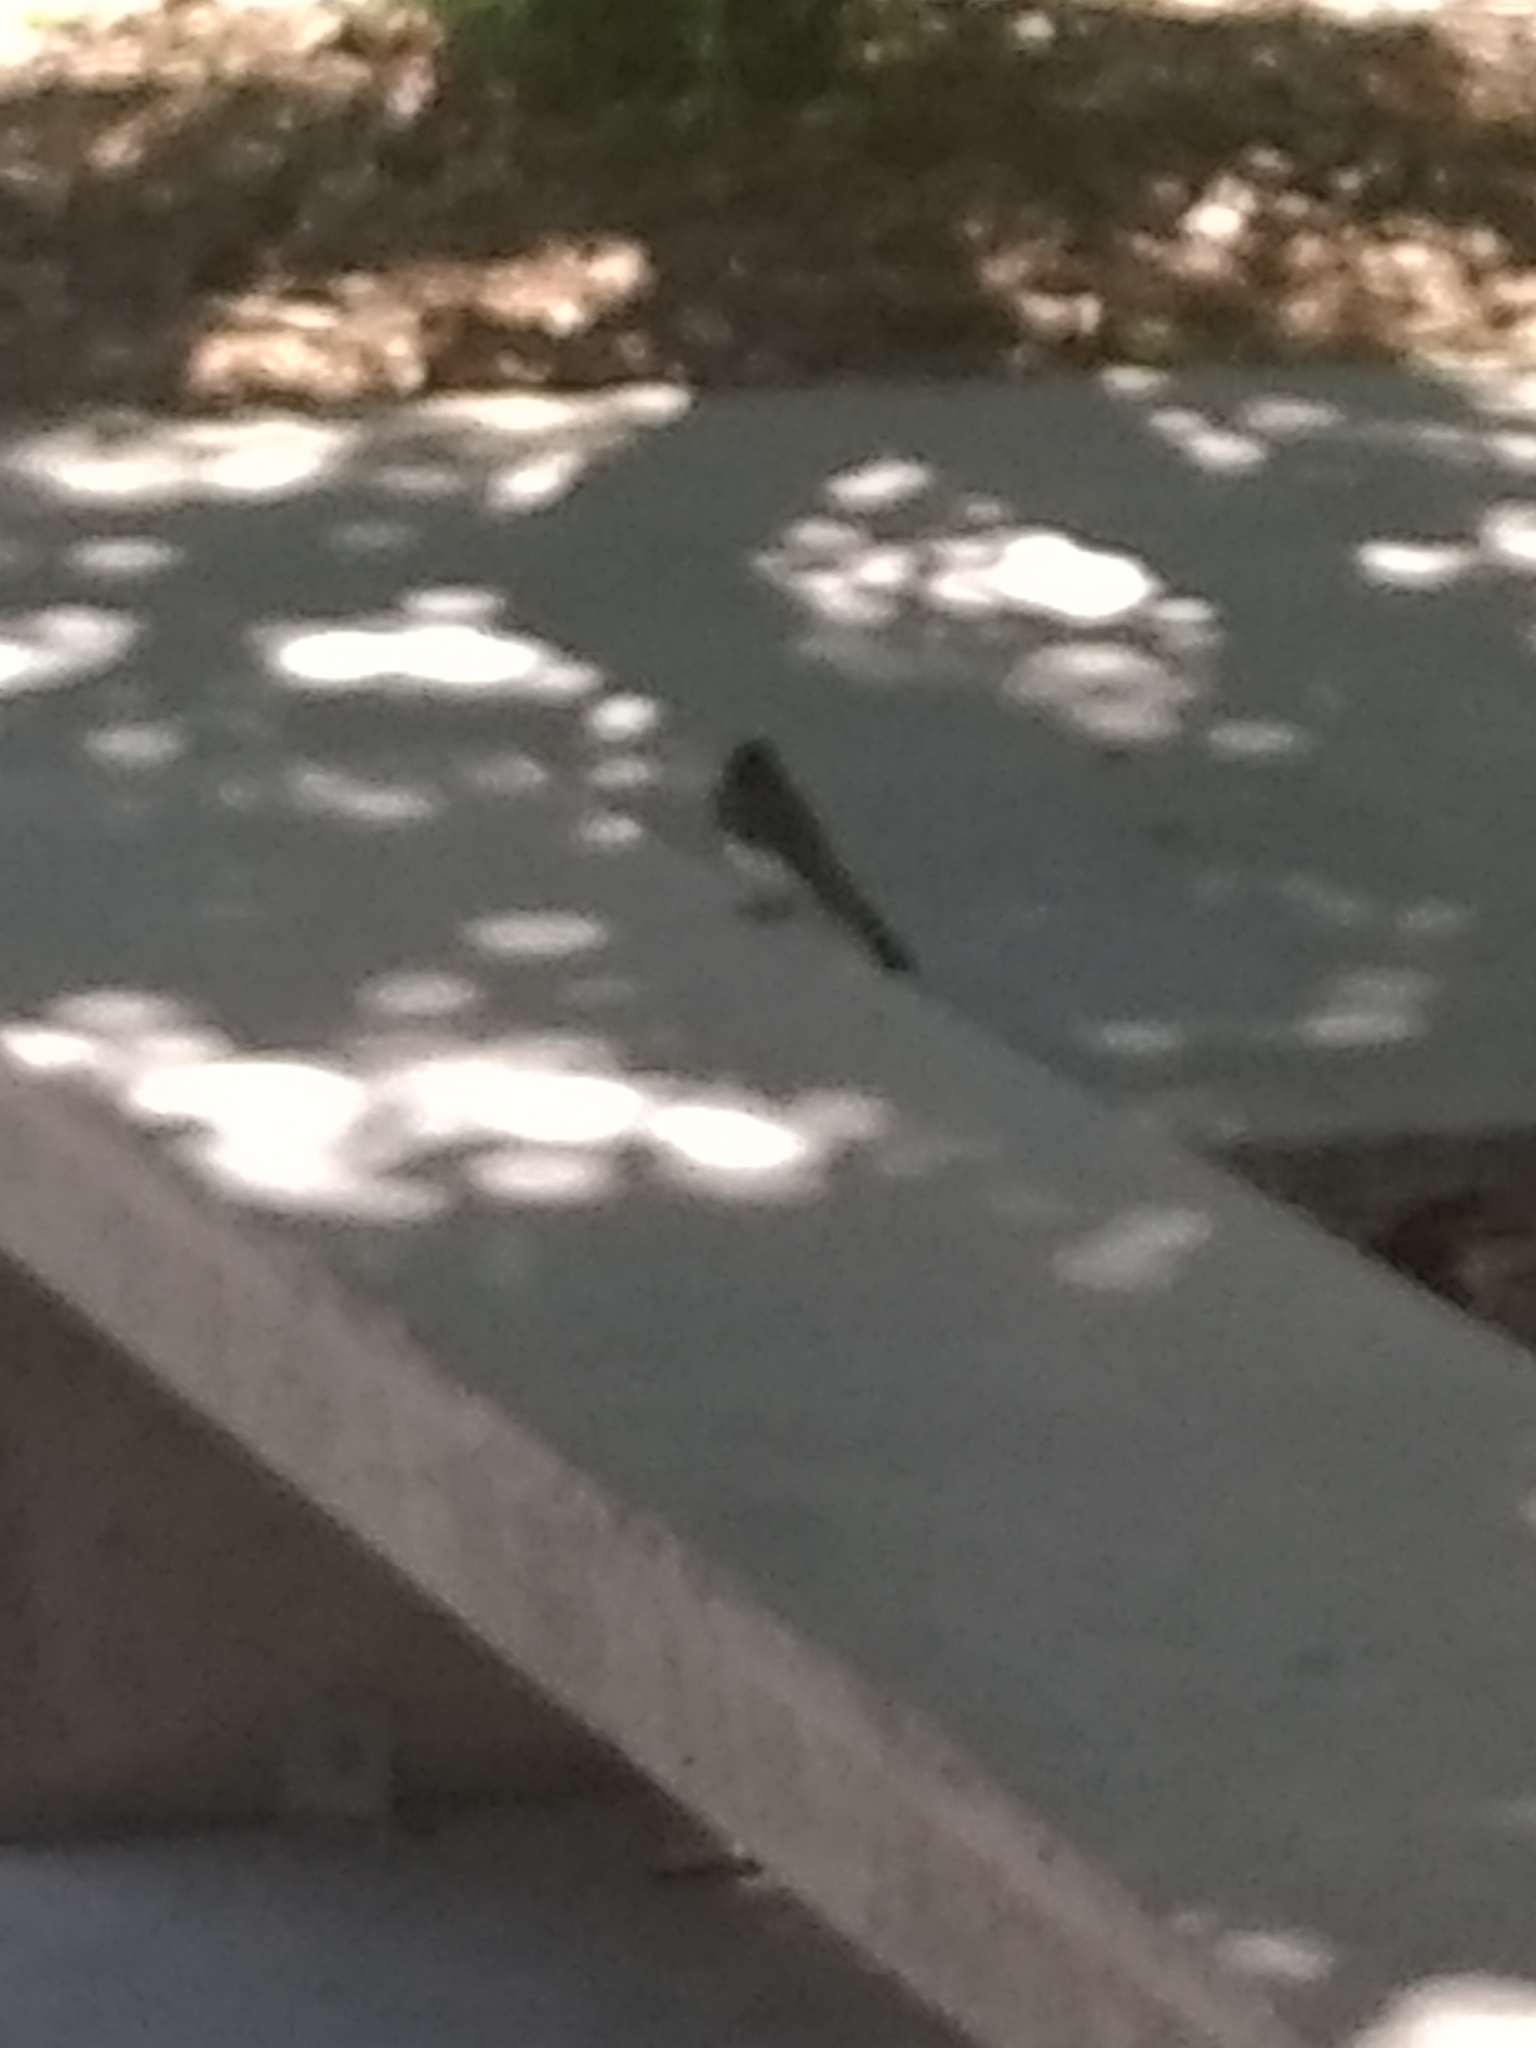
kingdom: Animalia
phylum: Chordata
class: Aves
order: Passeriformes
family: Tyrannidae
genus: Sayornis
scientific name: Sayornis nigricans
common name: Black phoebe
